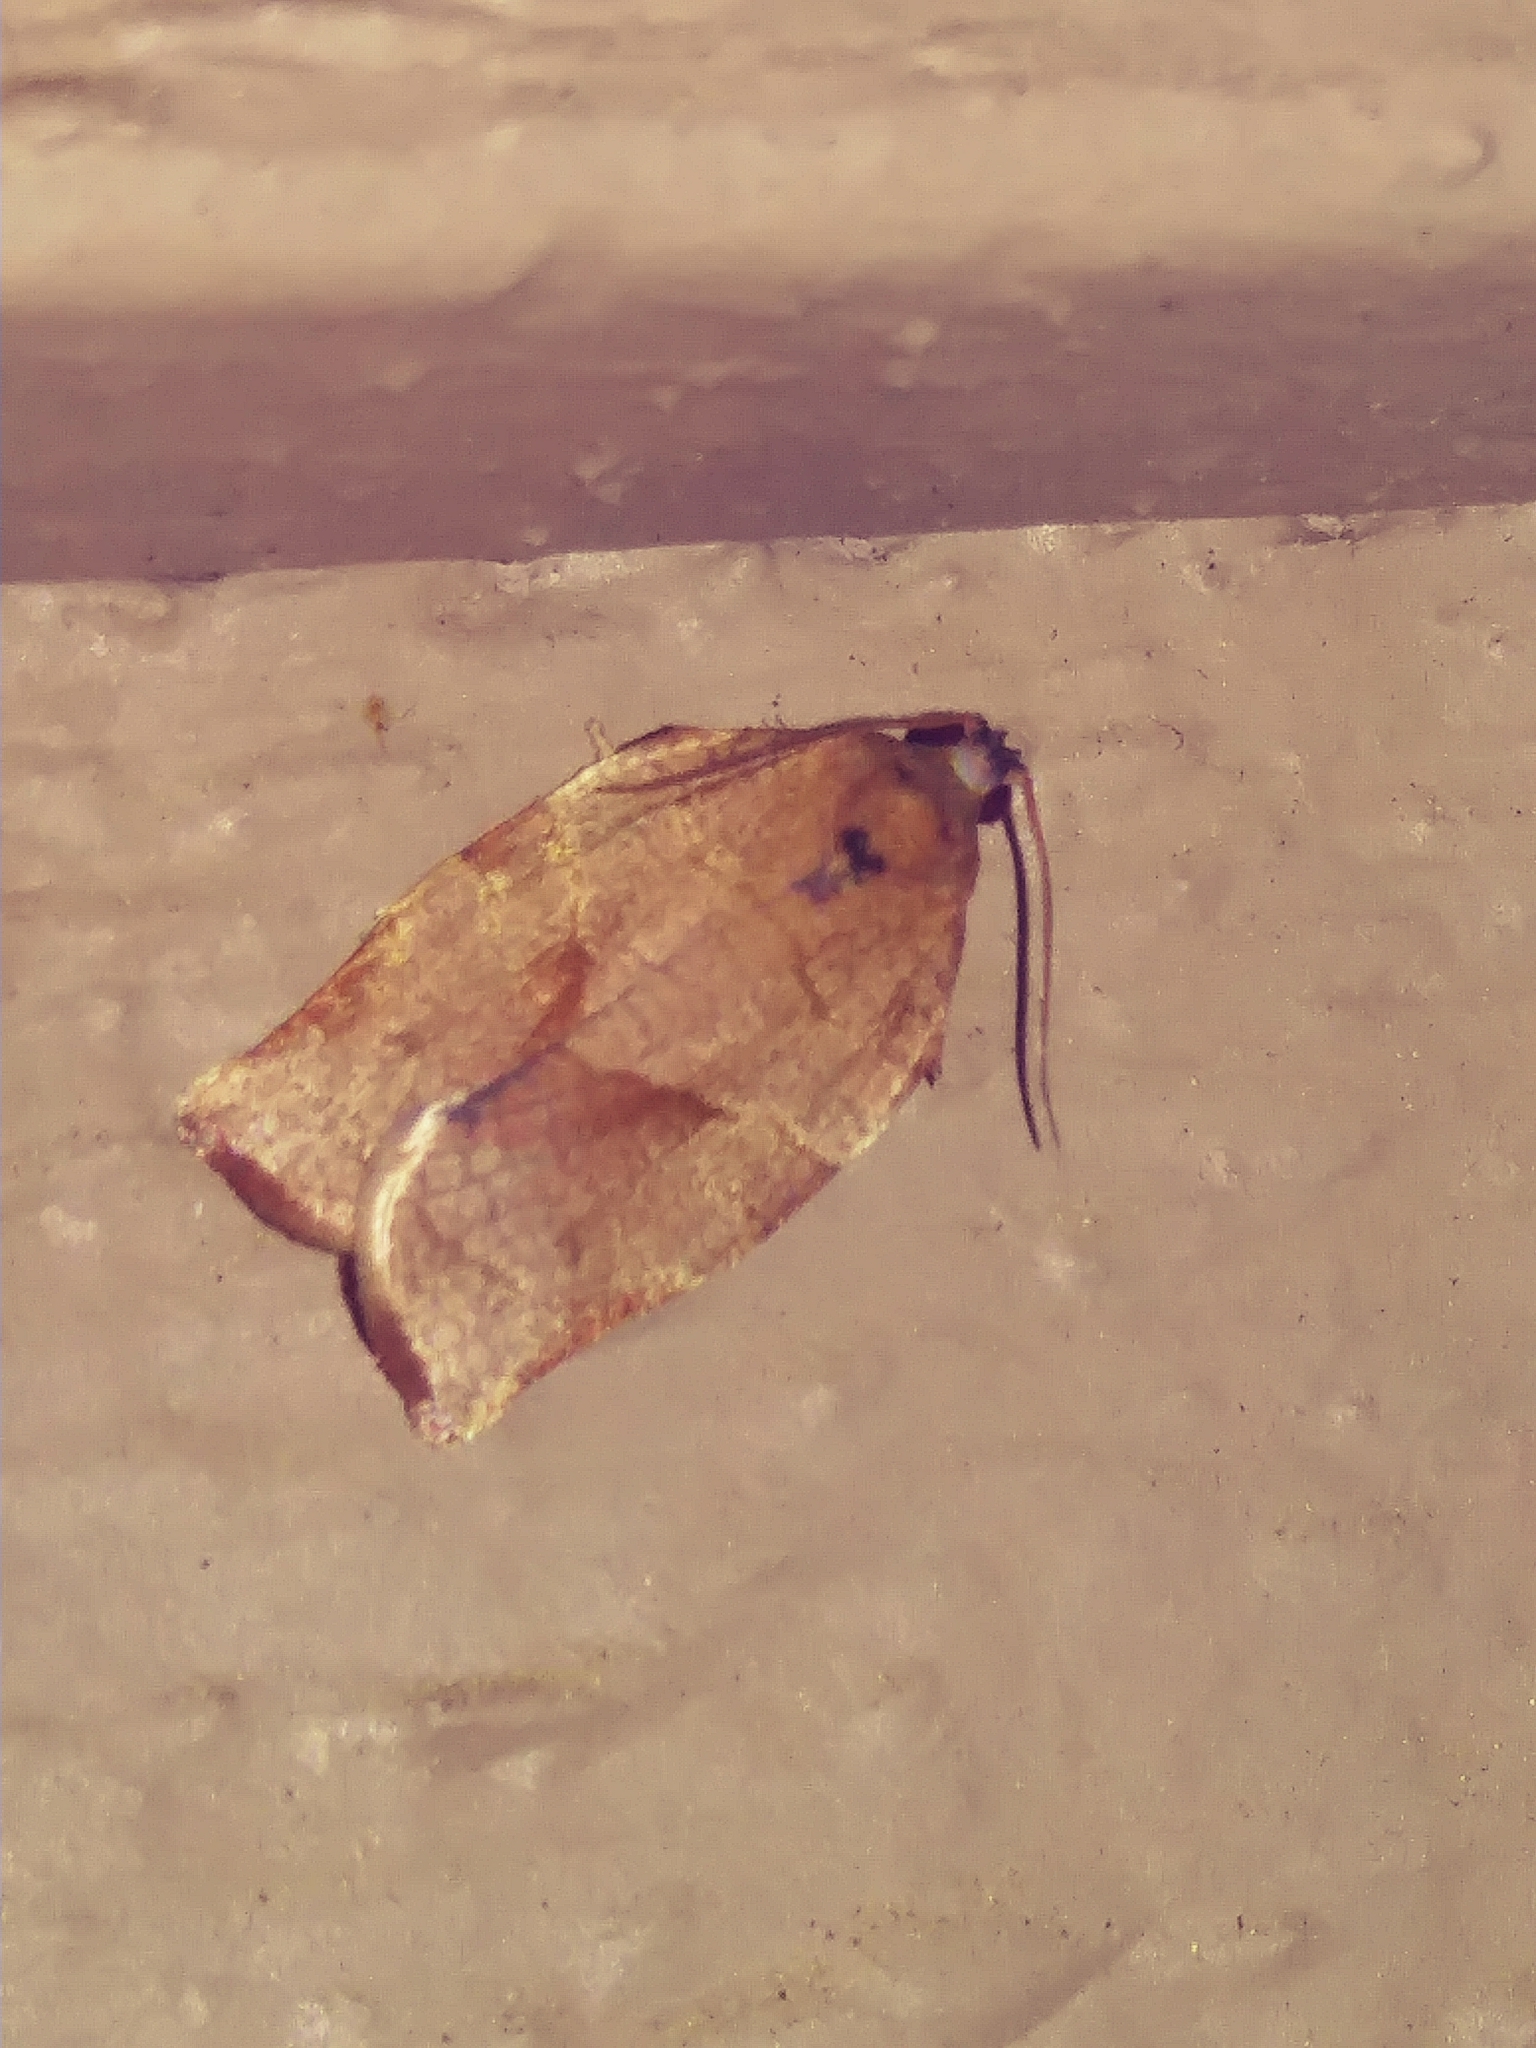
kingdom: Animalia
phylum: Arthropoda
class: Insecta
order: Lepidoptera
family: Tortricidae
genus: Choristoneura
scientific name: Choristoneura rosaceana
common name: Oblique-banded leafroller moth
